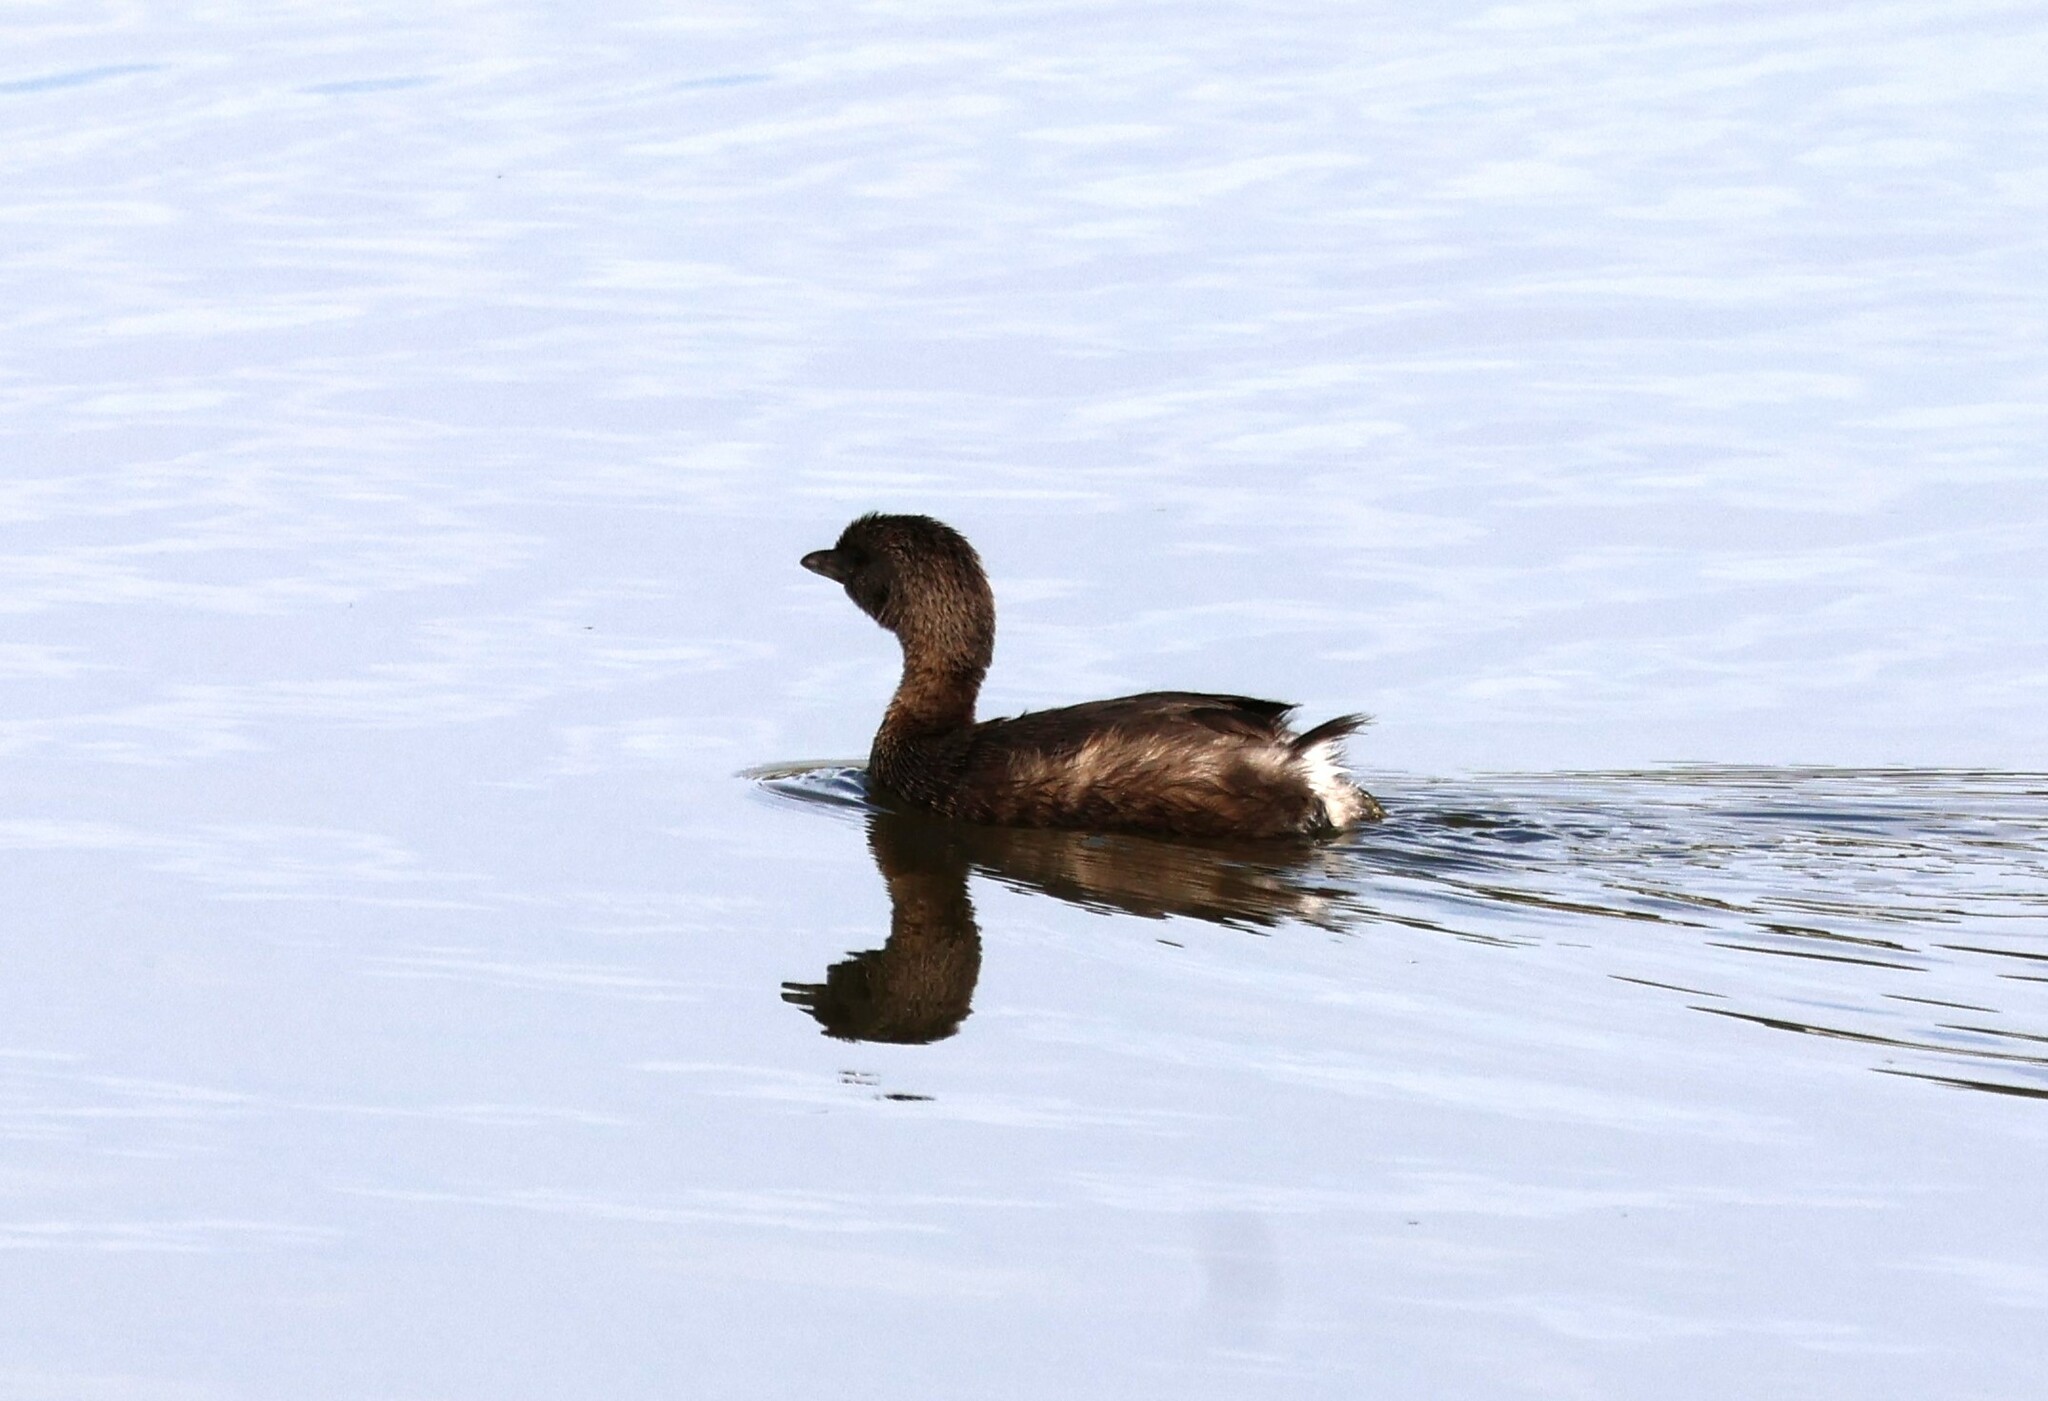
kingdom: Animalia
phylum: Chordata
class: Aves
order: Podicipediformes
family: Podicipedidae
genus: Podilymbus
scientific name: Podilymbus podiceps
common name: Pied-billed grebe
